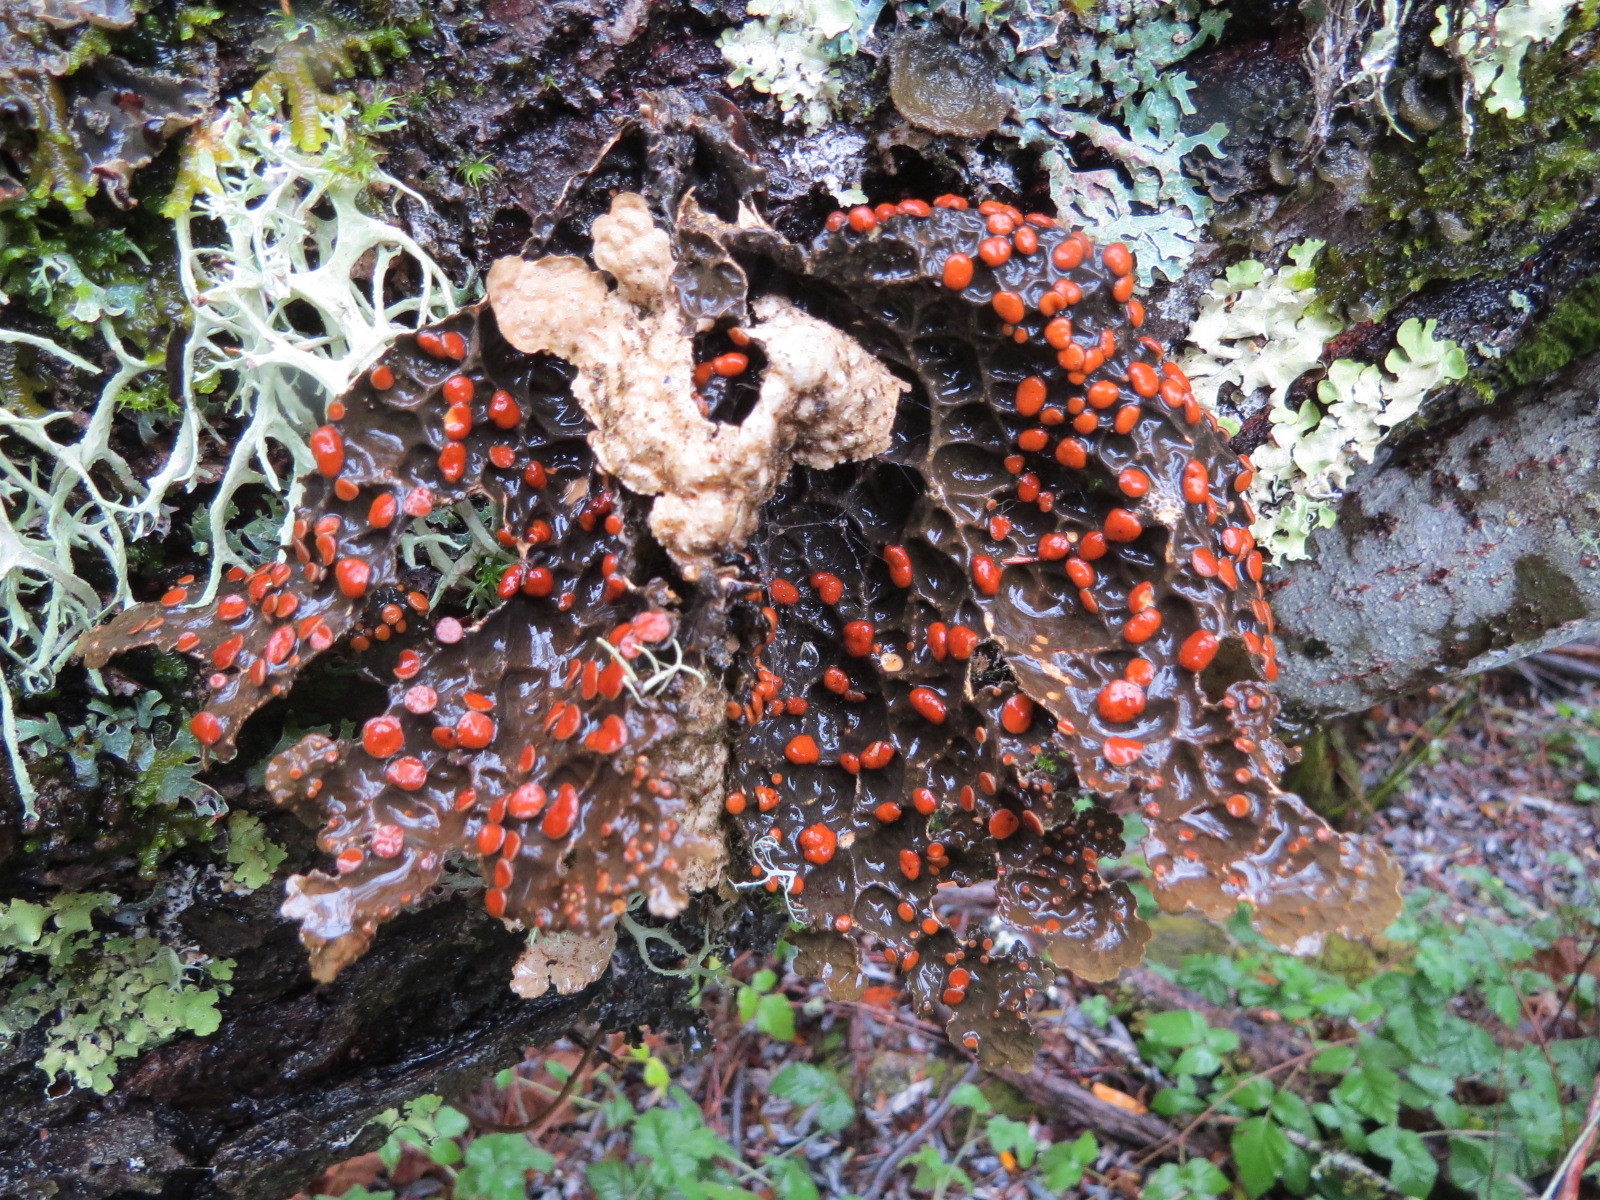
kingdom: Fungi
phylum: Ascomycota
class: Lecanoromycetes
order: Peltigerales
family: Lobariaceae
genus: Lobaria
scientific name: Lobaria anthraspis
